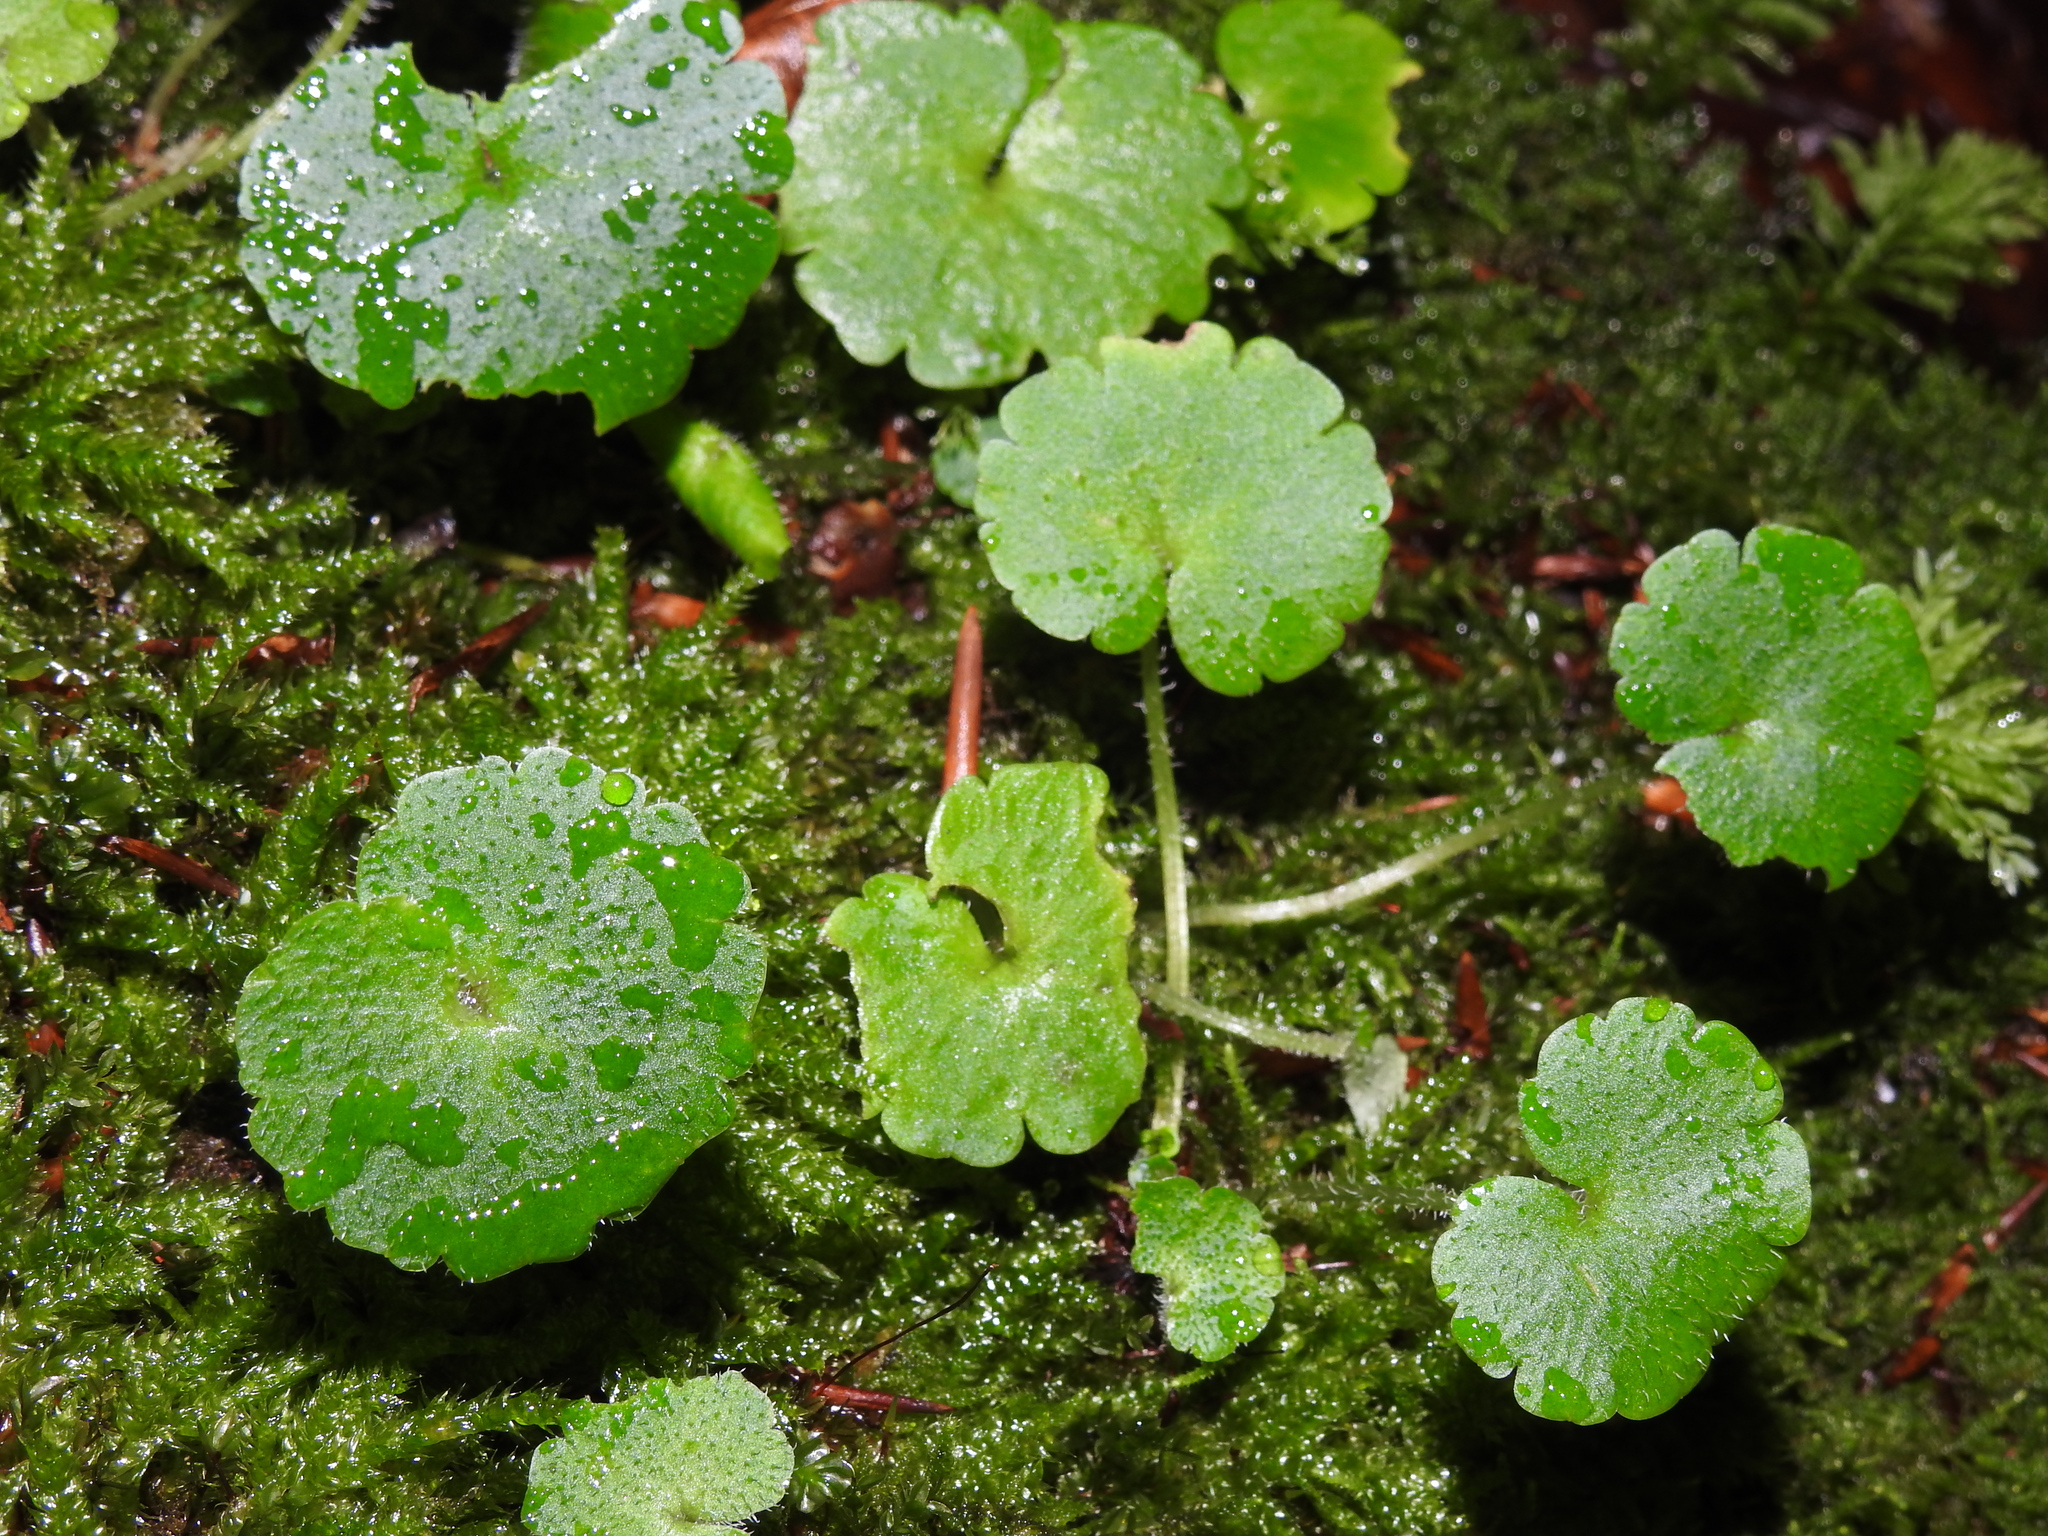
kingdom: Plantae
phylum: Tracheophyta
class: Magnoliopsida
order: Saxifragales
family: Saxifragaceae
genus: Chrysosplenium
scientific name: Chrysosplenium alternifolium
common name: Alternate-leaved golden-saxifrage
